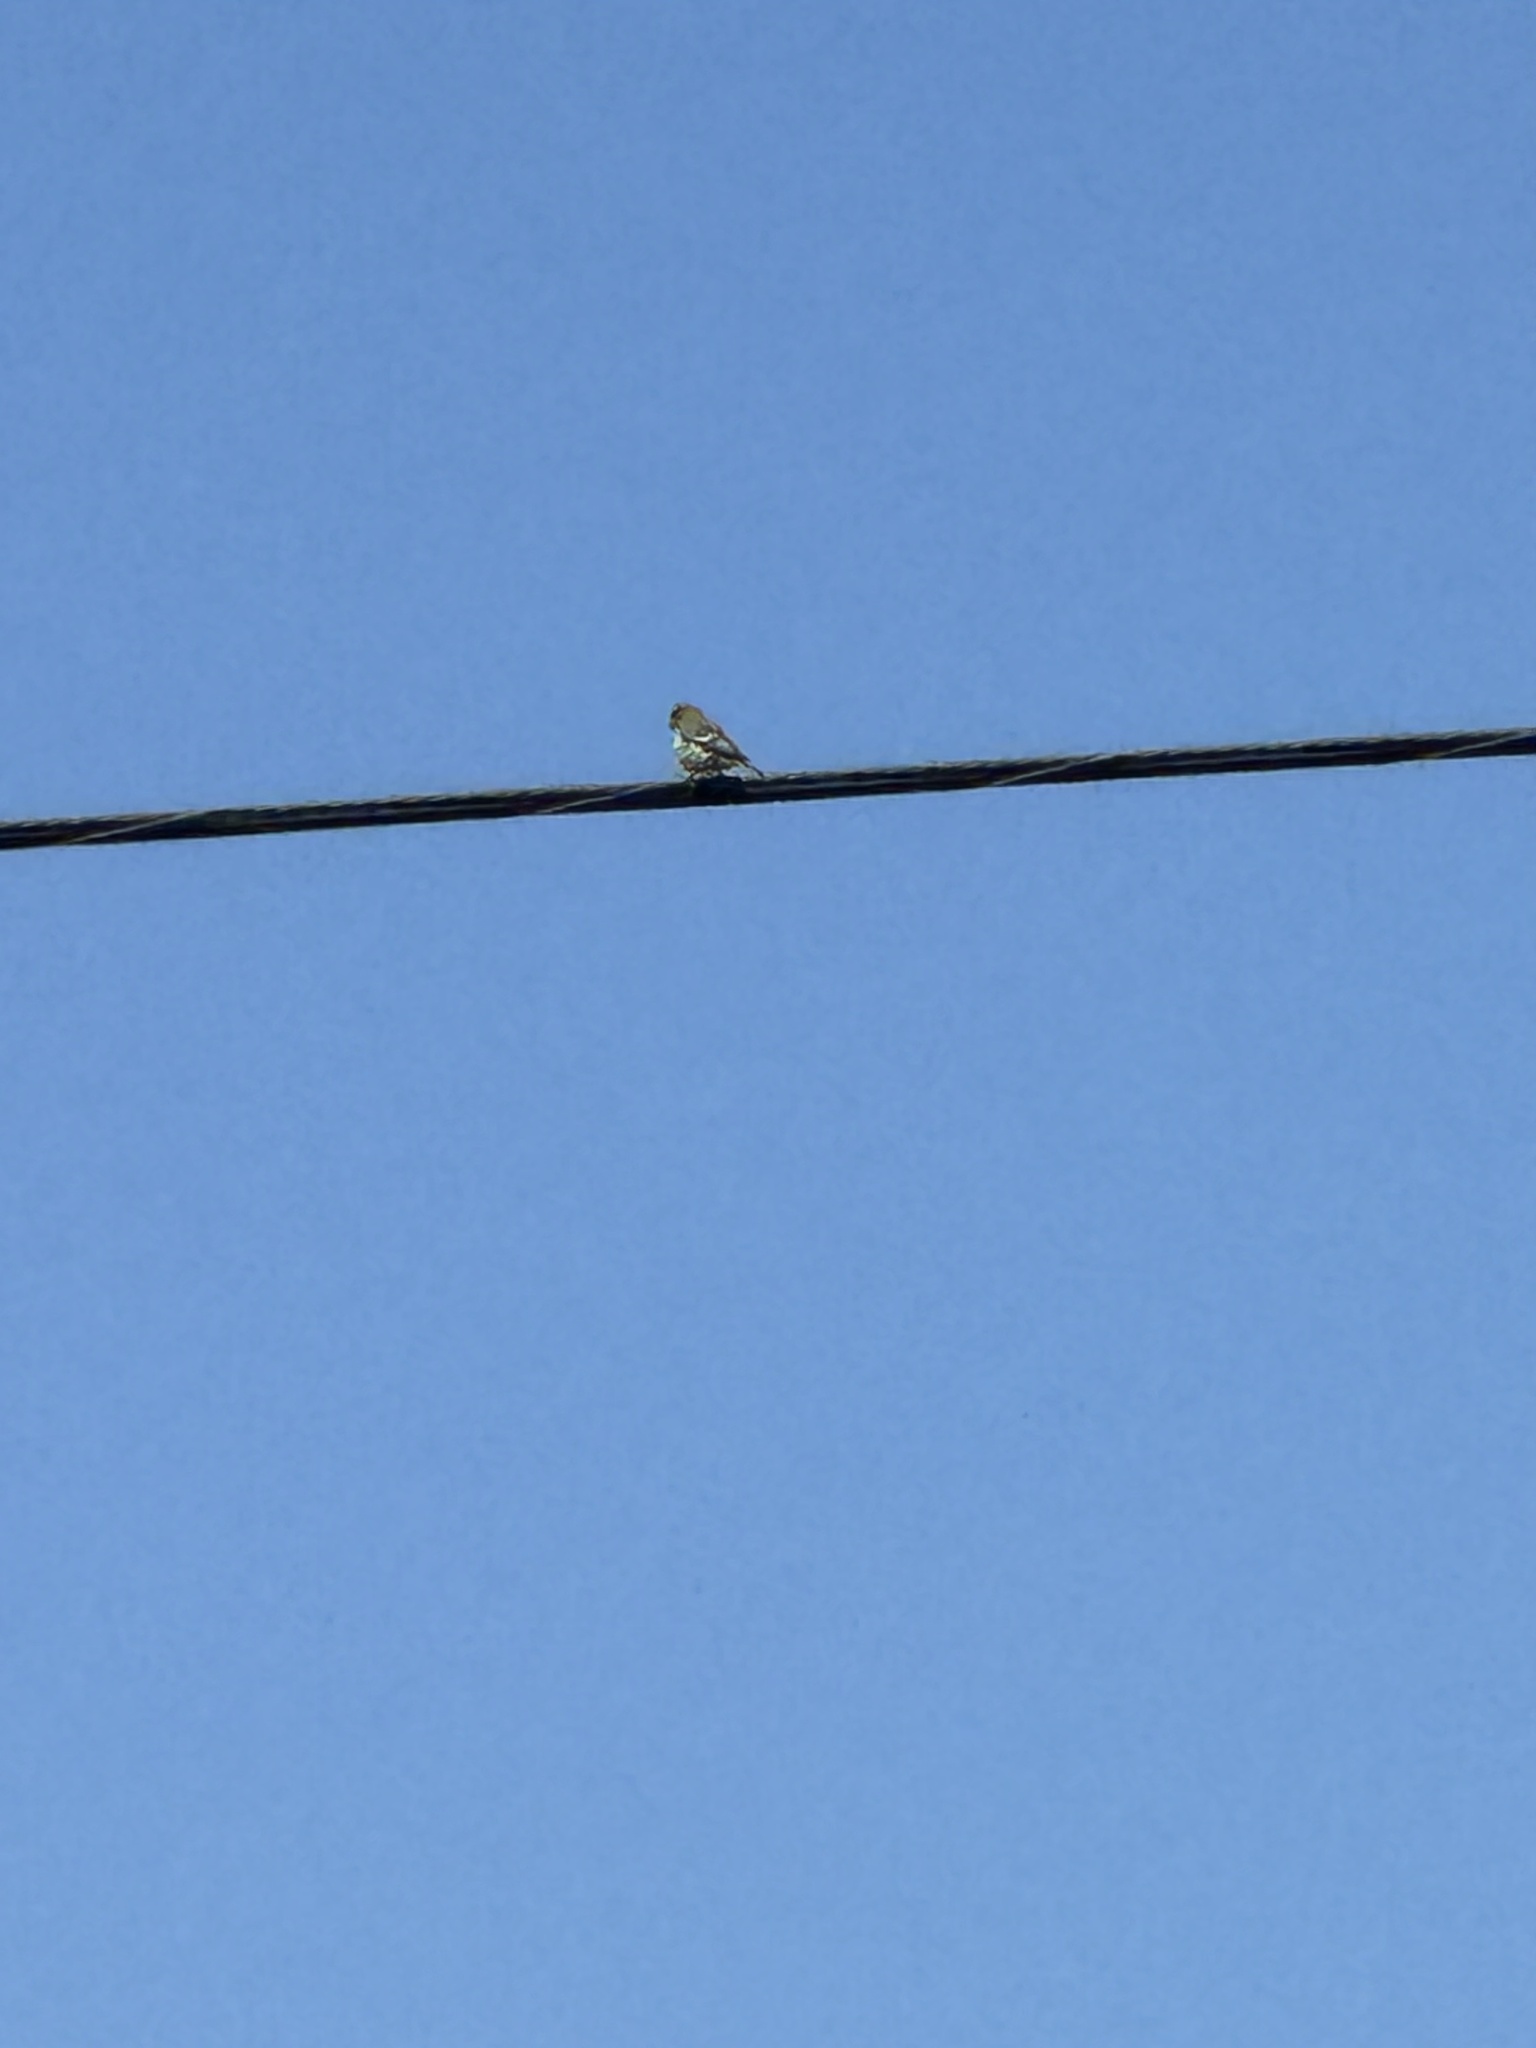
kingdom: Animalia
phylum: Chordata
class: Aves
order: Passeriformes
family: Fringillidae
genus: Spinus
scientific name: Spinus psaltria
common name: Lesser goldfinch
